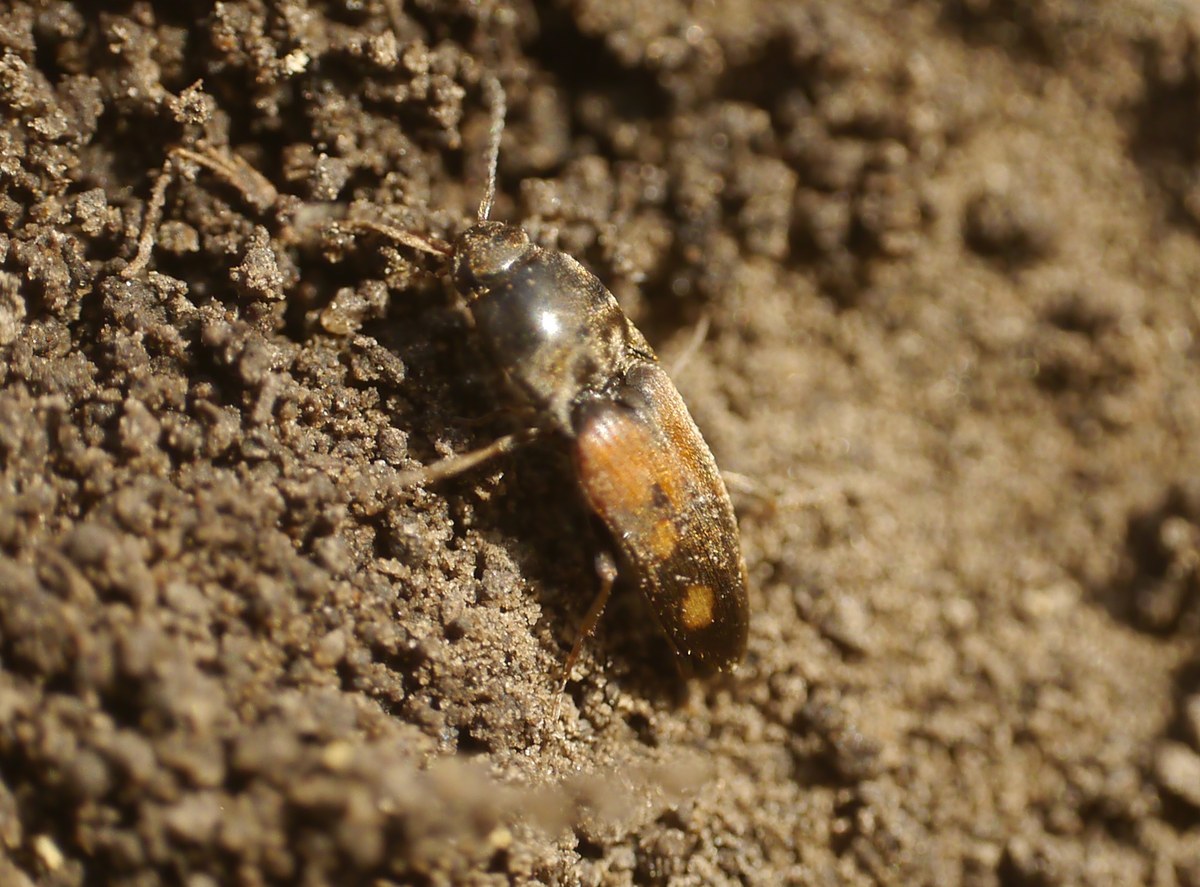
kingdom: Animalia
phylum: Arthropoda
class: Insecta
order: Coleoptera
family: Elateridae
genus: Drasterius
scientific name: Drasterius bimaculatus
